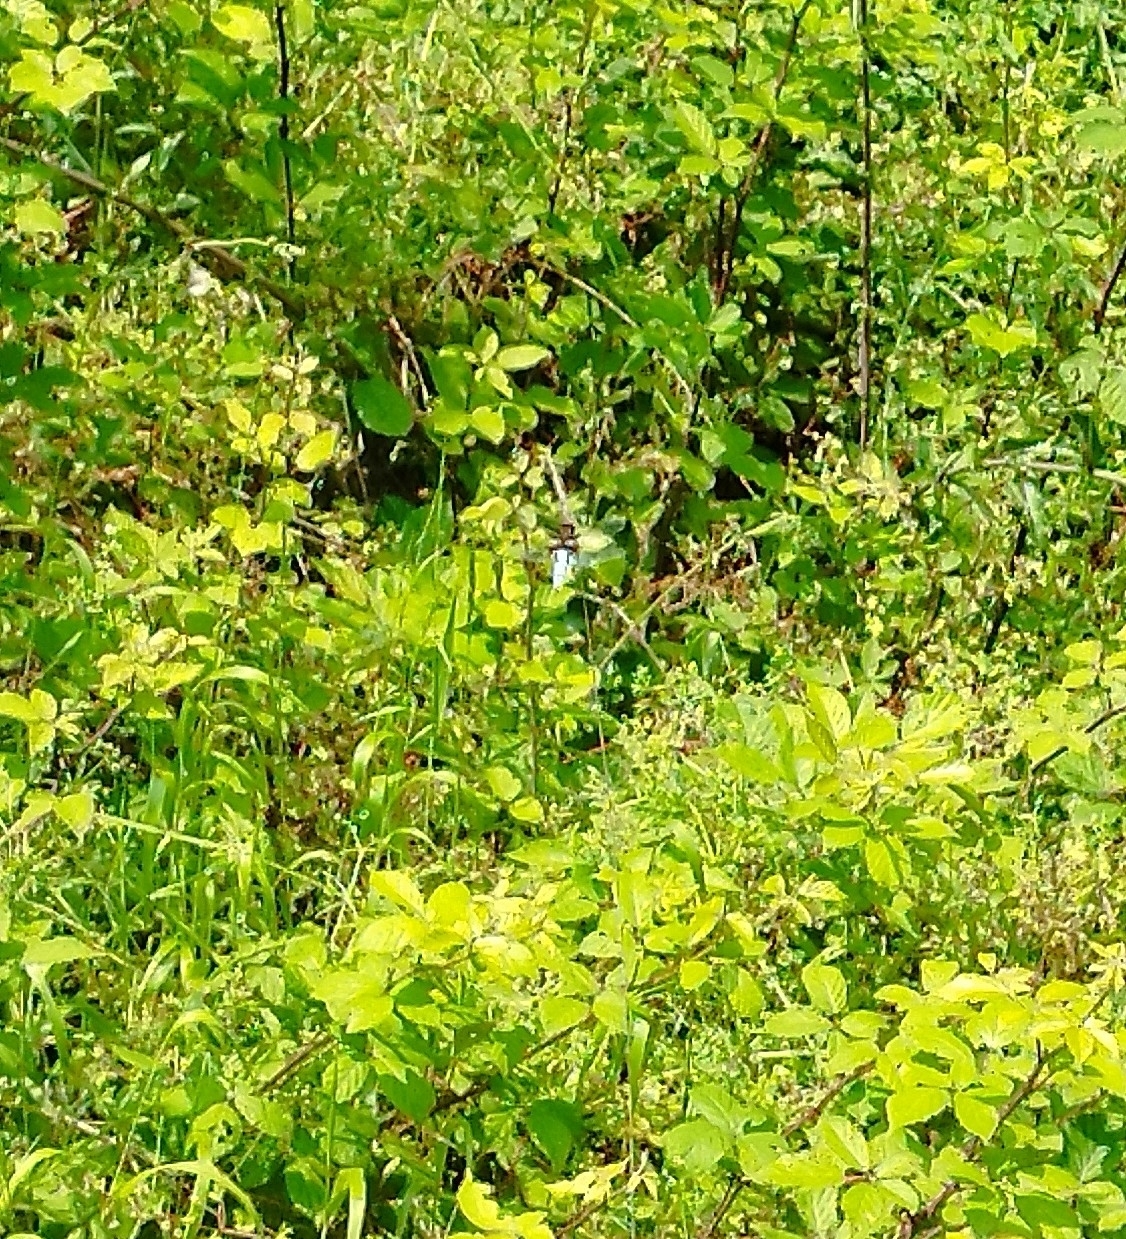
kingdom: Animalia
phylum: Arthropoda
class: Insecta
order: Odonata
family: Libellulidae
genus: Libellula
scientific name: Libellula depressa
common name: Broad-bodied chaser
